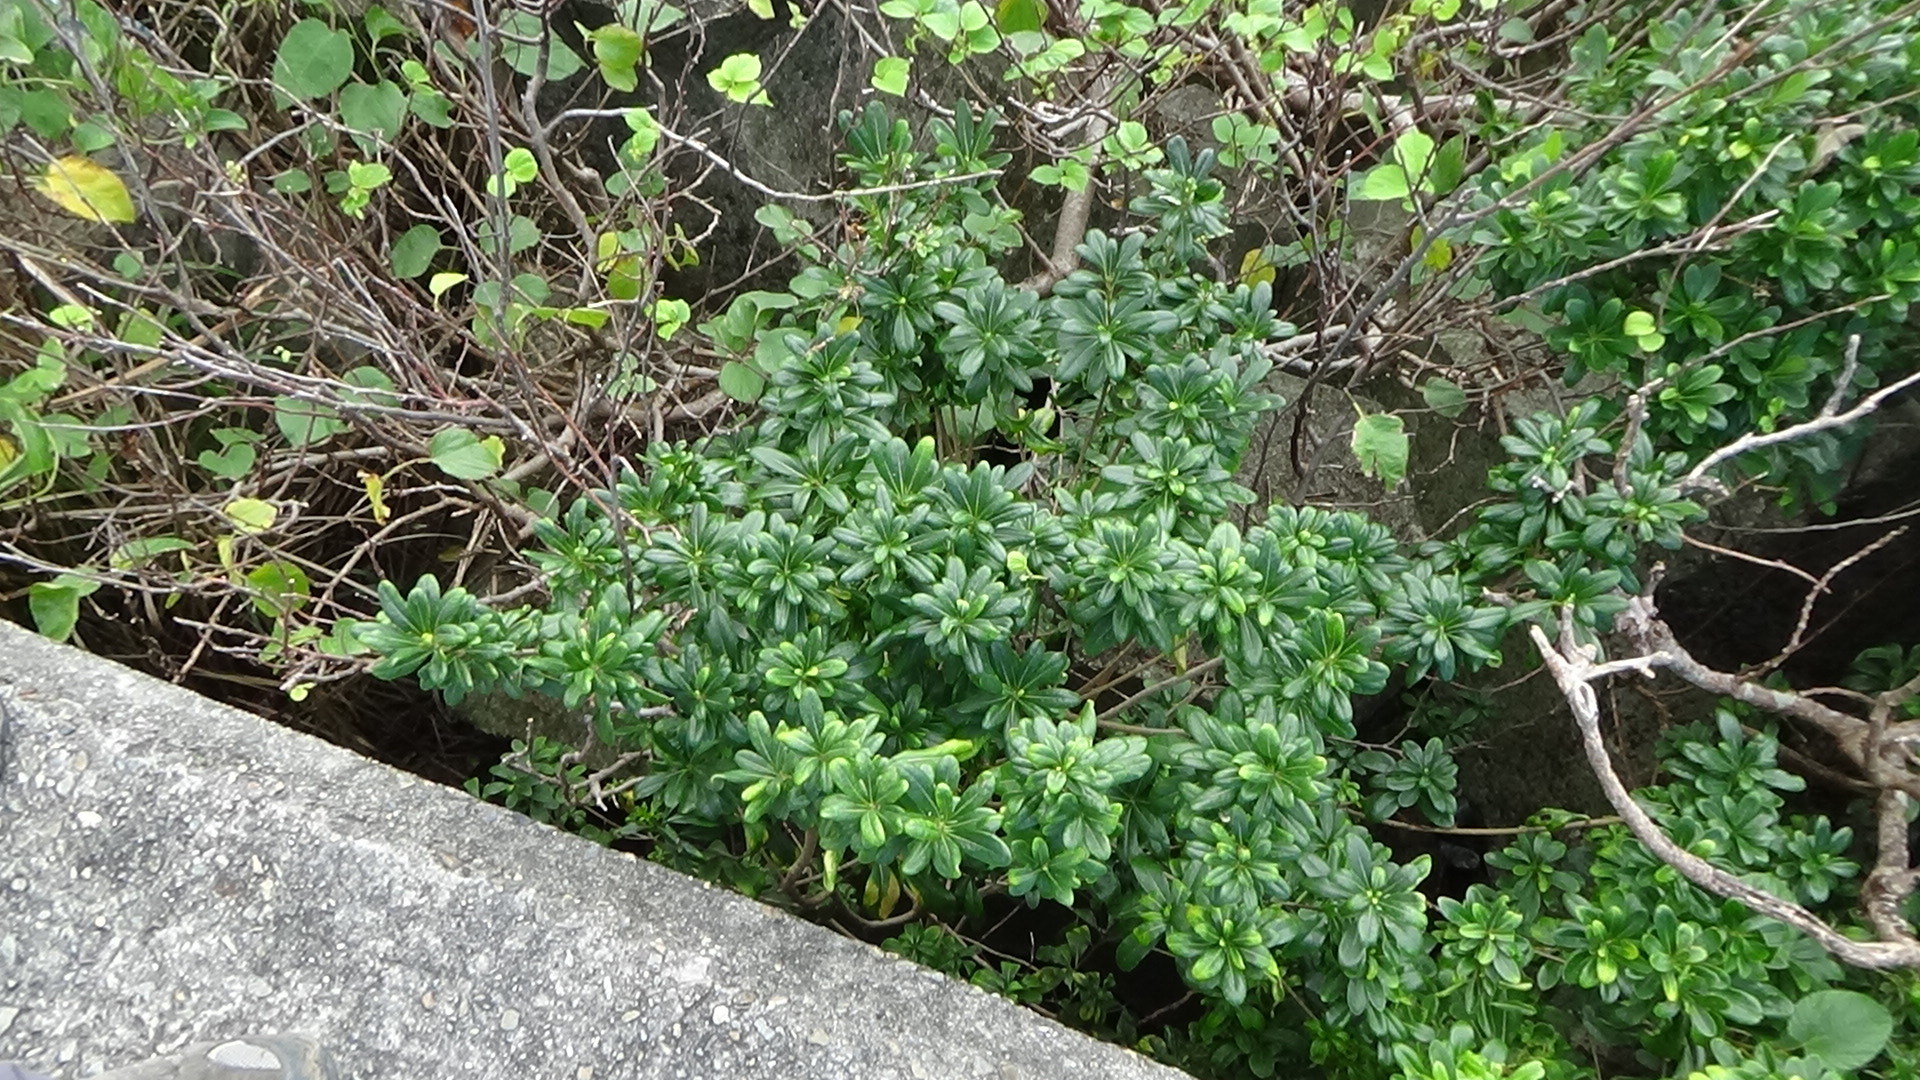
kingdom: Plantae
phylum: Tracheophyta
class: Magnoliopsida
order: Apiales
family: Pittosporaceae
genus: Pittosporum
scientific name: Pittosporum tobira
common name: Japanese cheesewood
